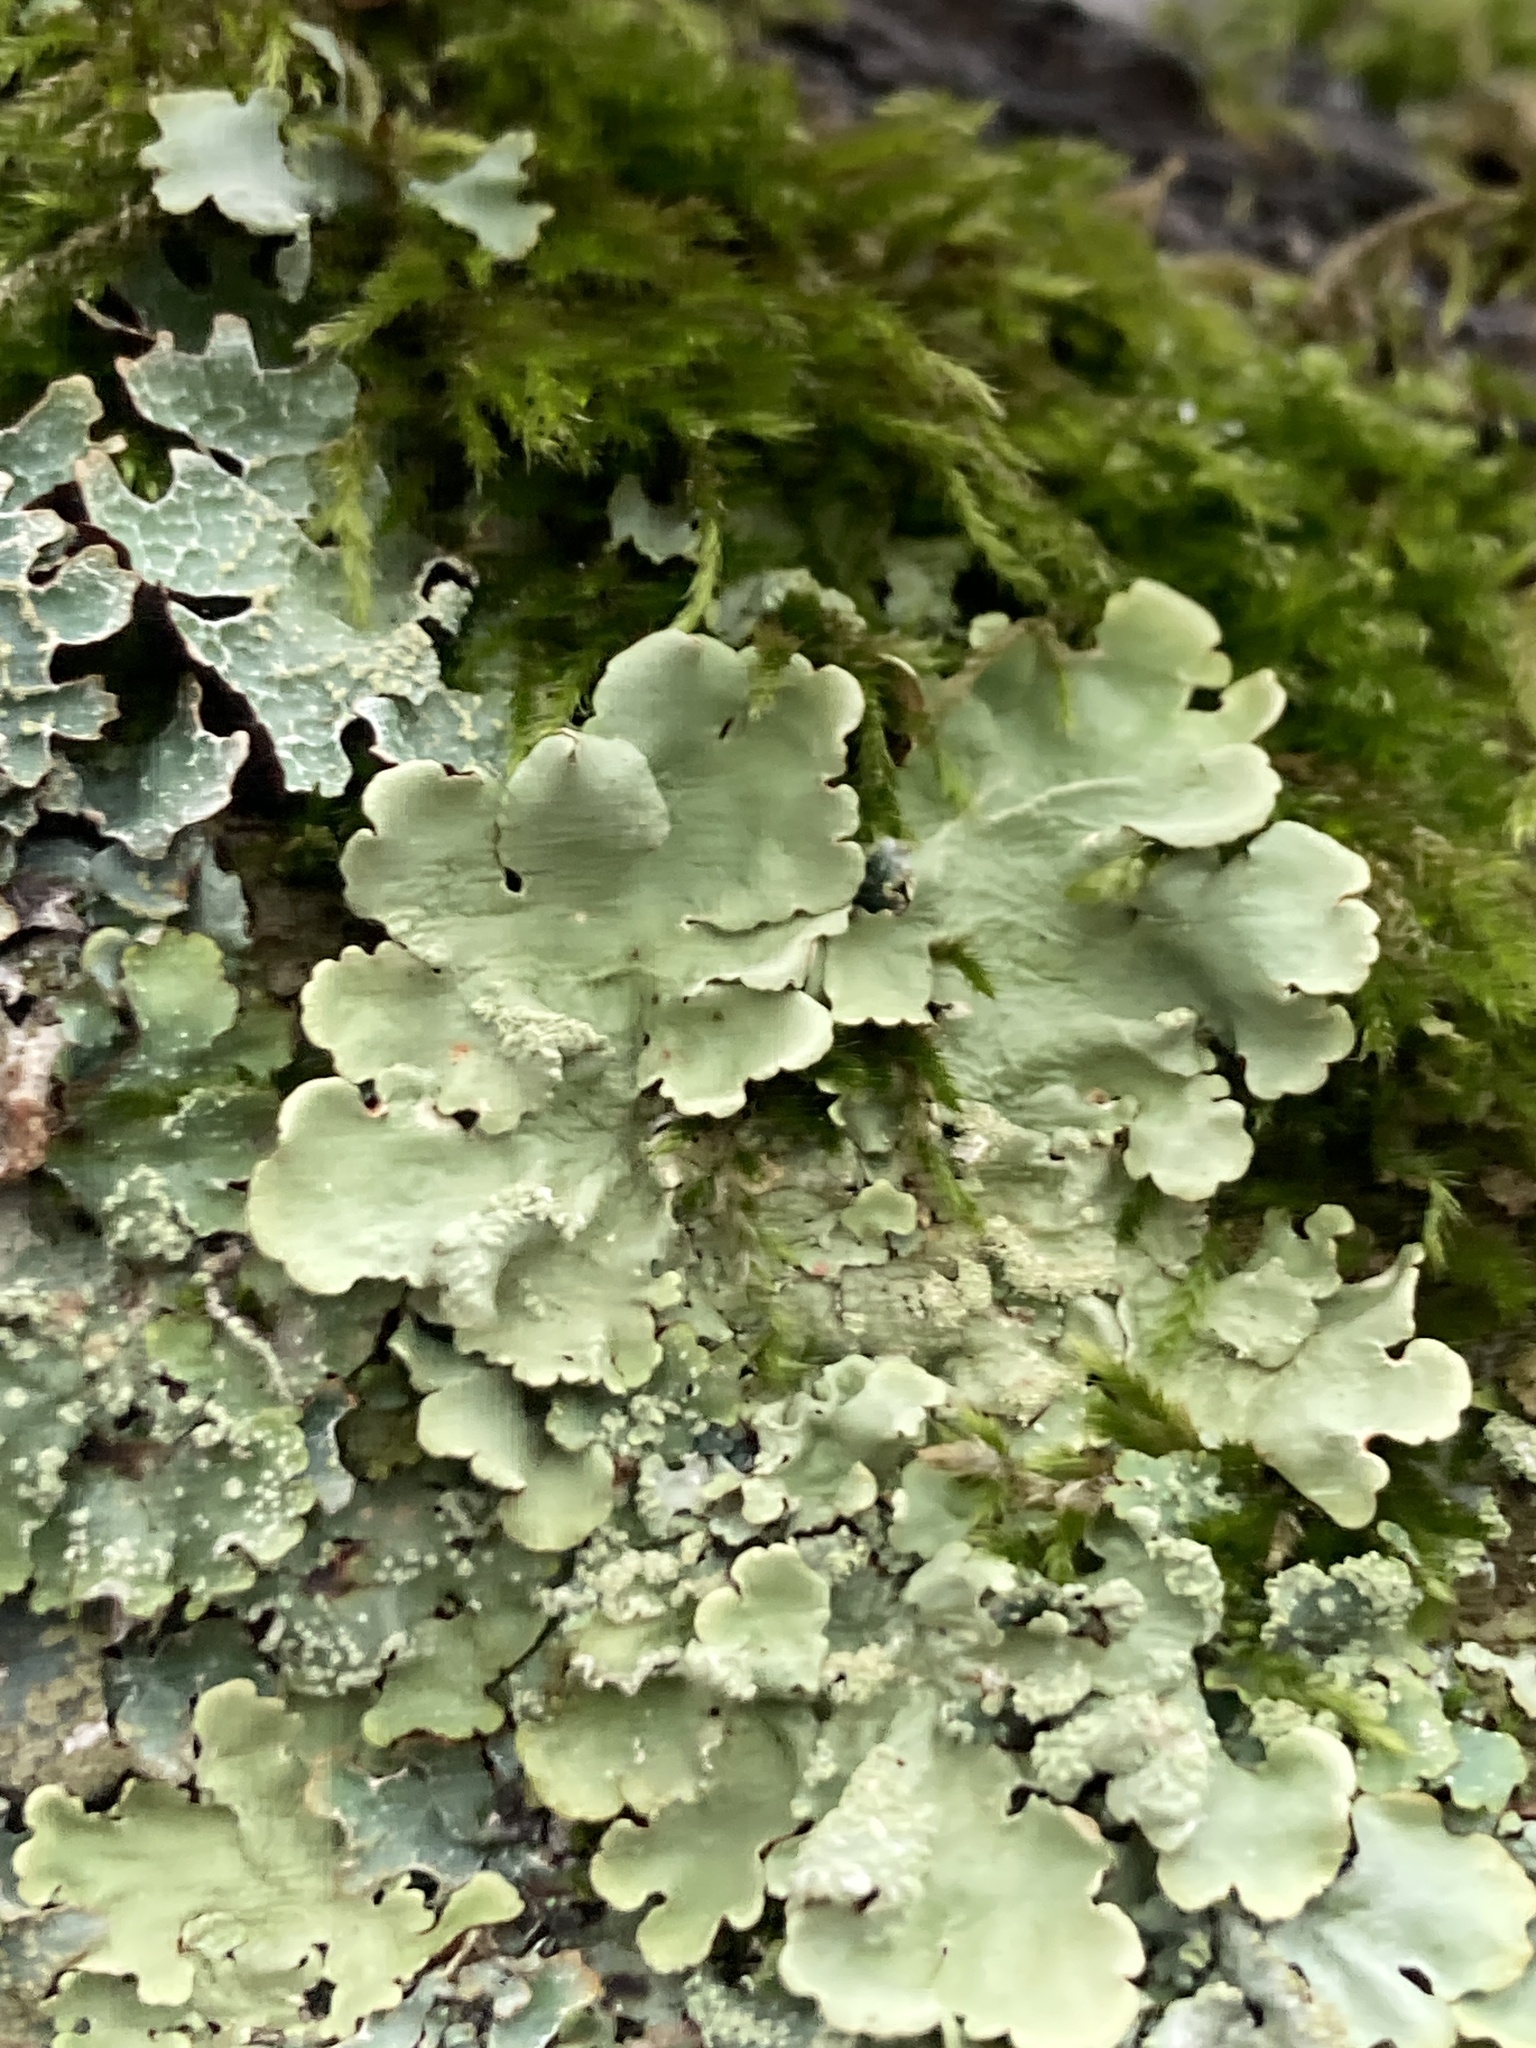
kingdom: Fungi
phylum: Ascomycota
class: Lecanoromycetes
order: Lecanorales
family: Parmeliaceae
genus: Flavoparmelia
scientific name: Flavoparmelia caperata
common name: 40-mile per hour lichen
